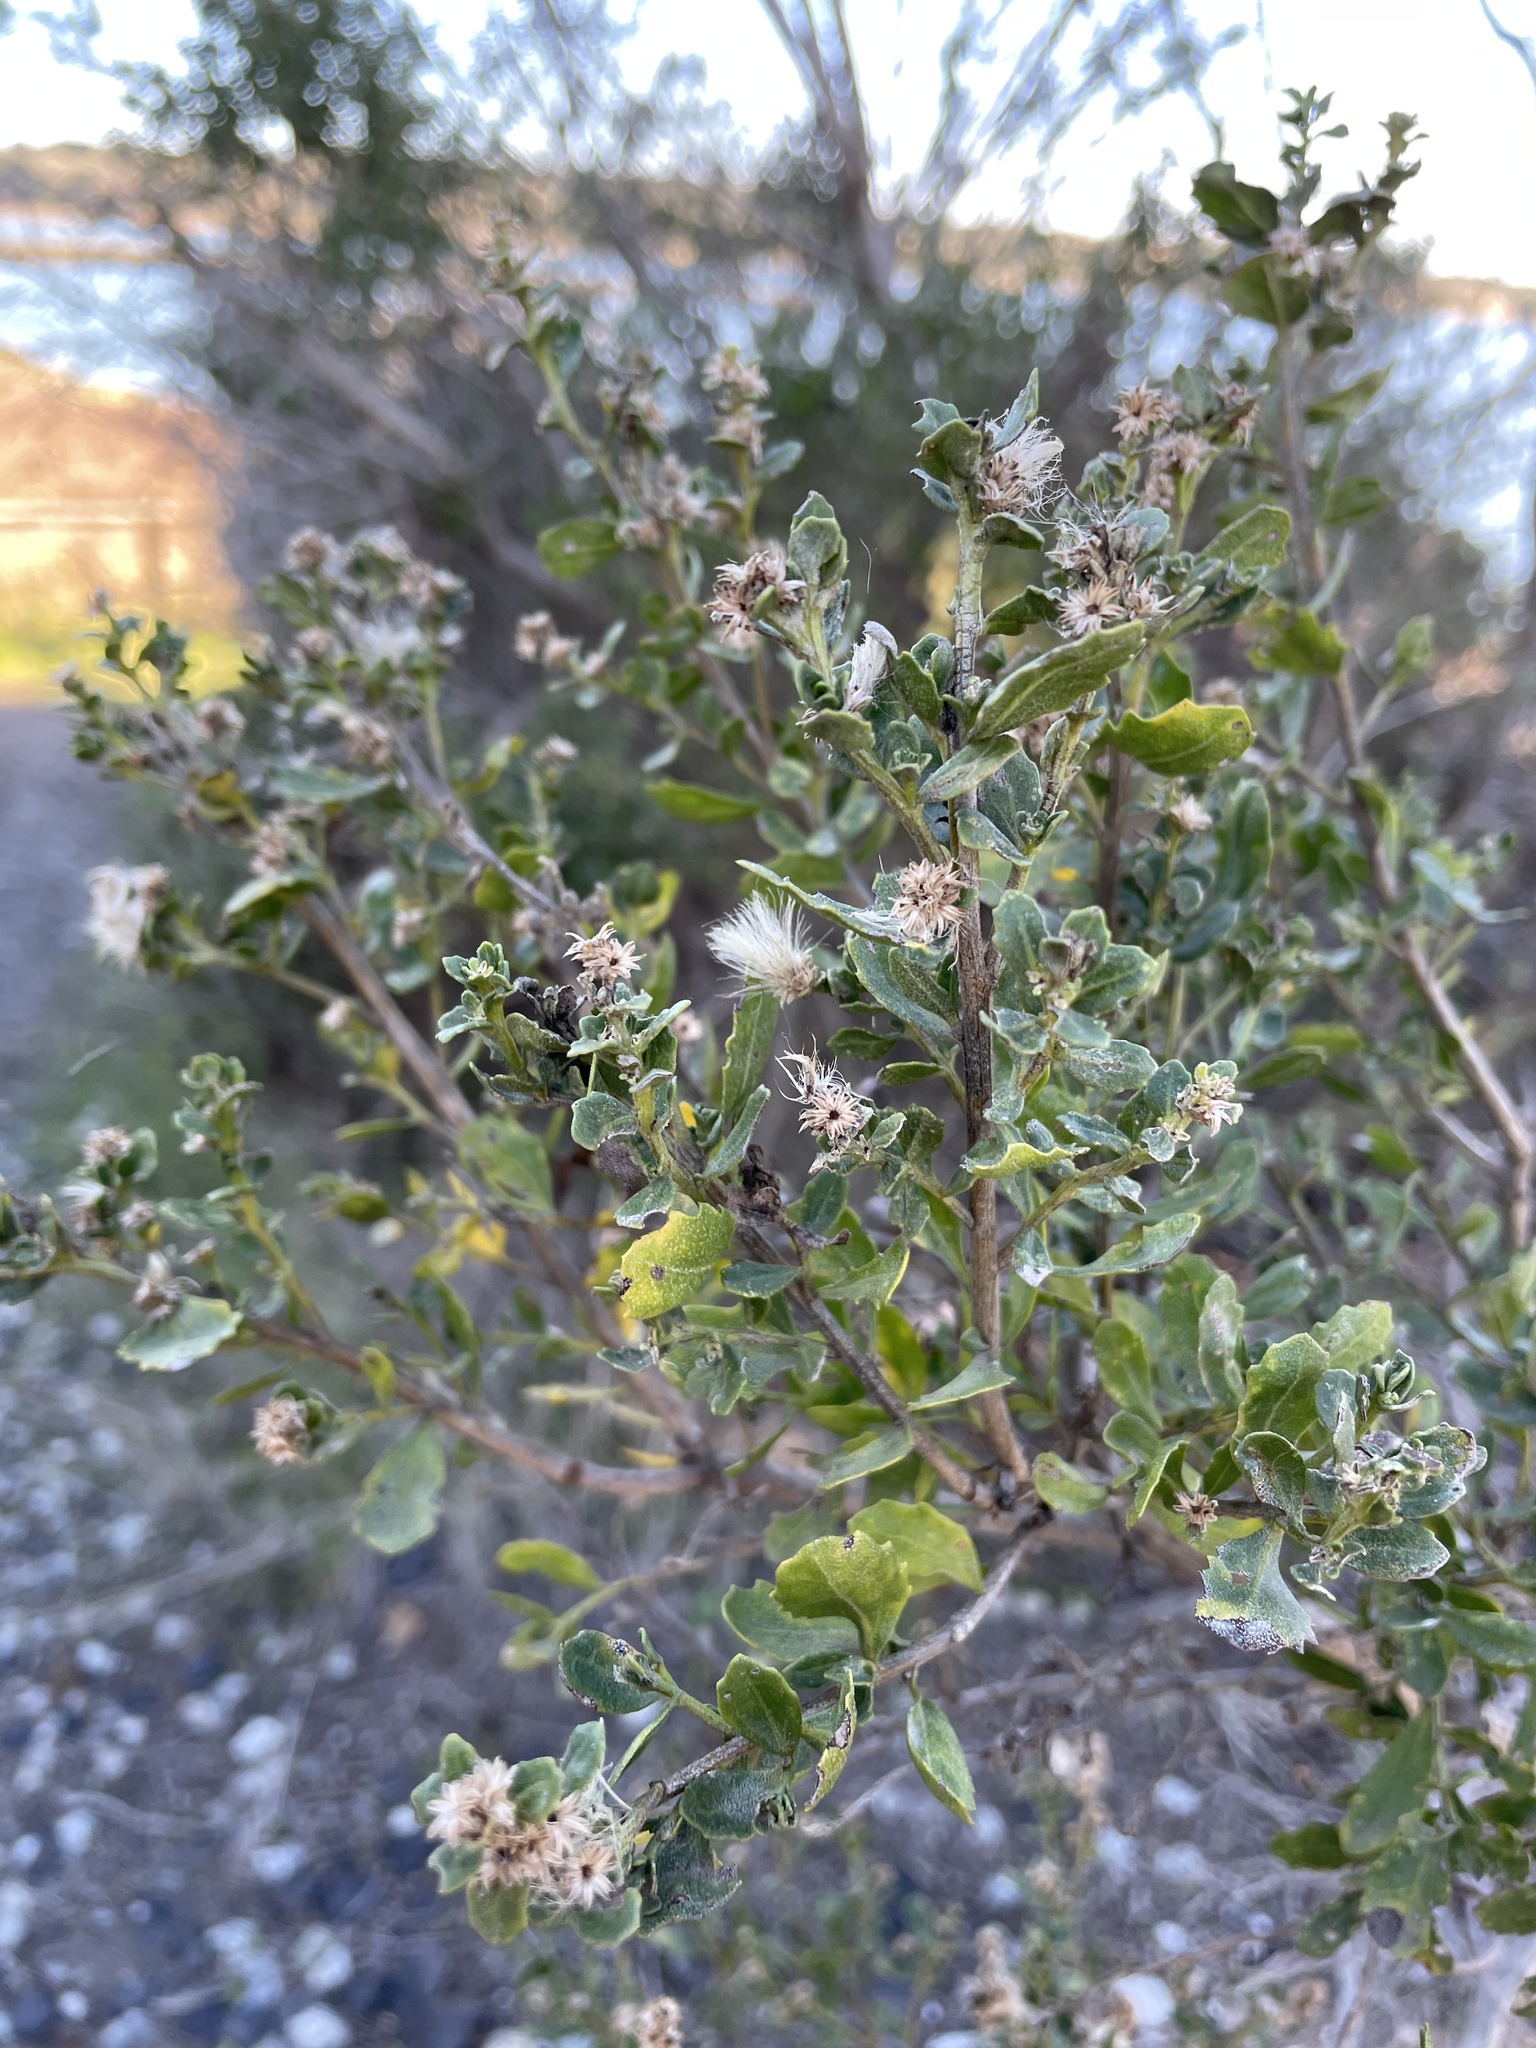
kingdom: Plantae
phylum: Tracheophyta
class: Magnoliopsida
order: Asterales
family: Asteraceae
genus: Baccharis
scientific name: Baccharis pilularis
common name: Coyotebrush
